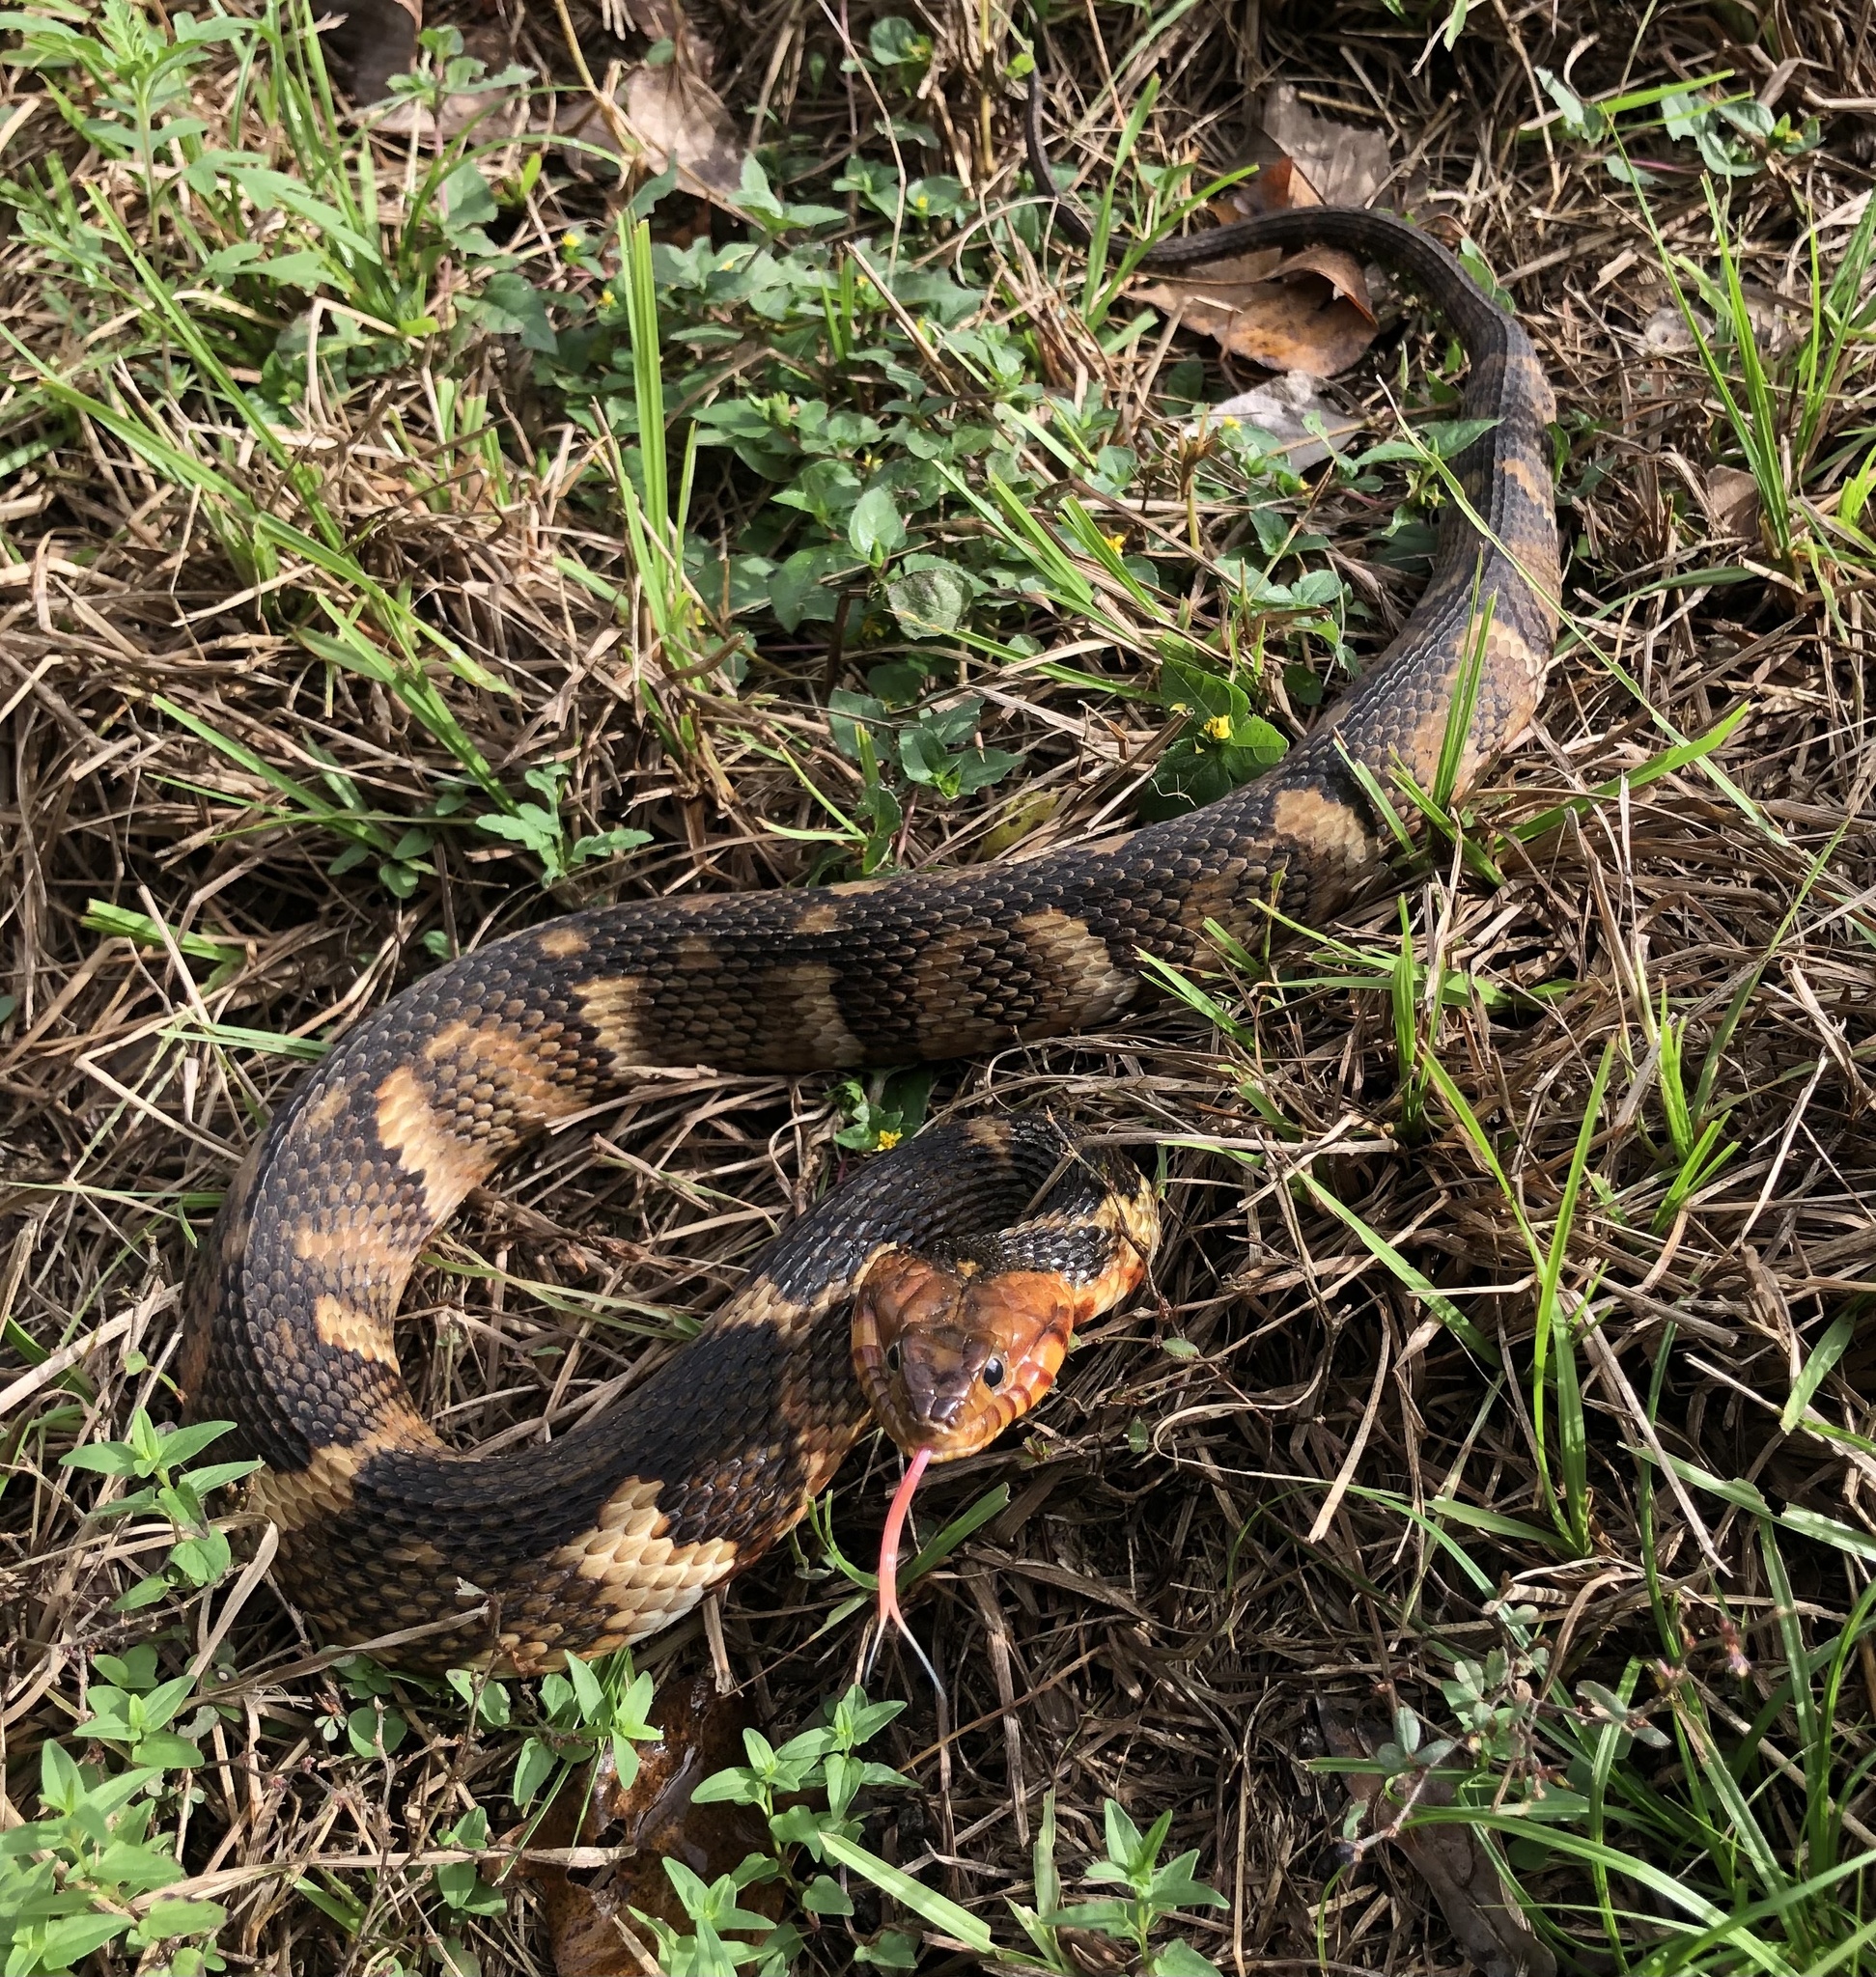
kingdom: Animalia
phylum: Chordata
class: Squamata
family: Colubridae
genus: Nerodia
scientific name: Nerodia fasciata
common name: Southern water snake
